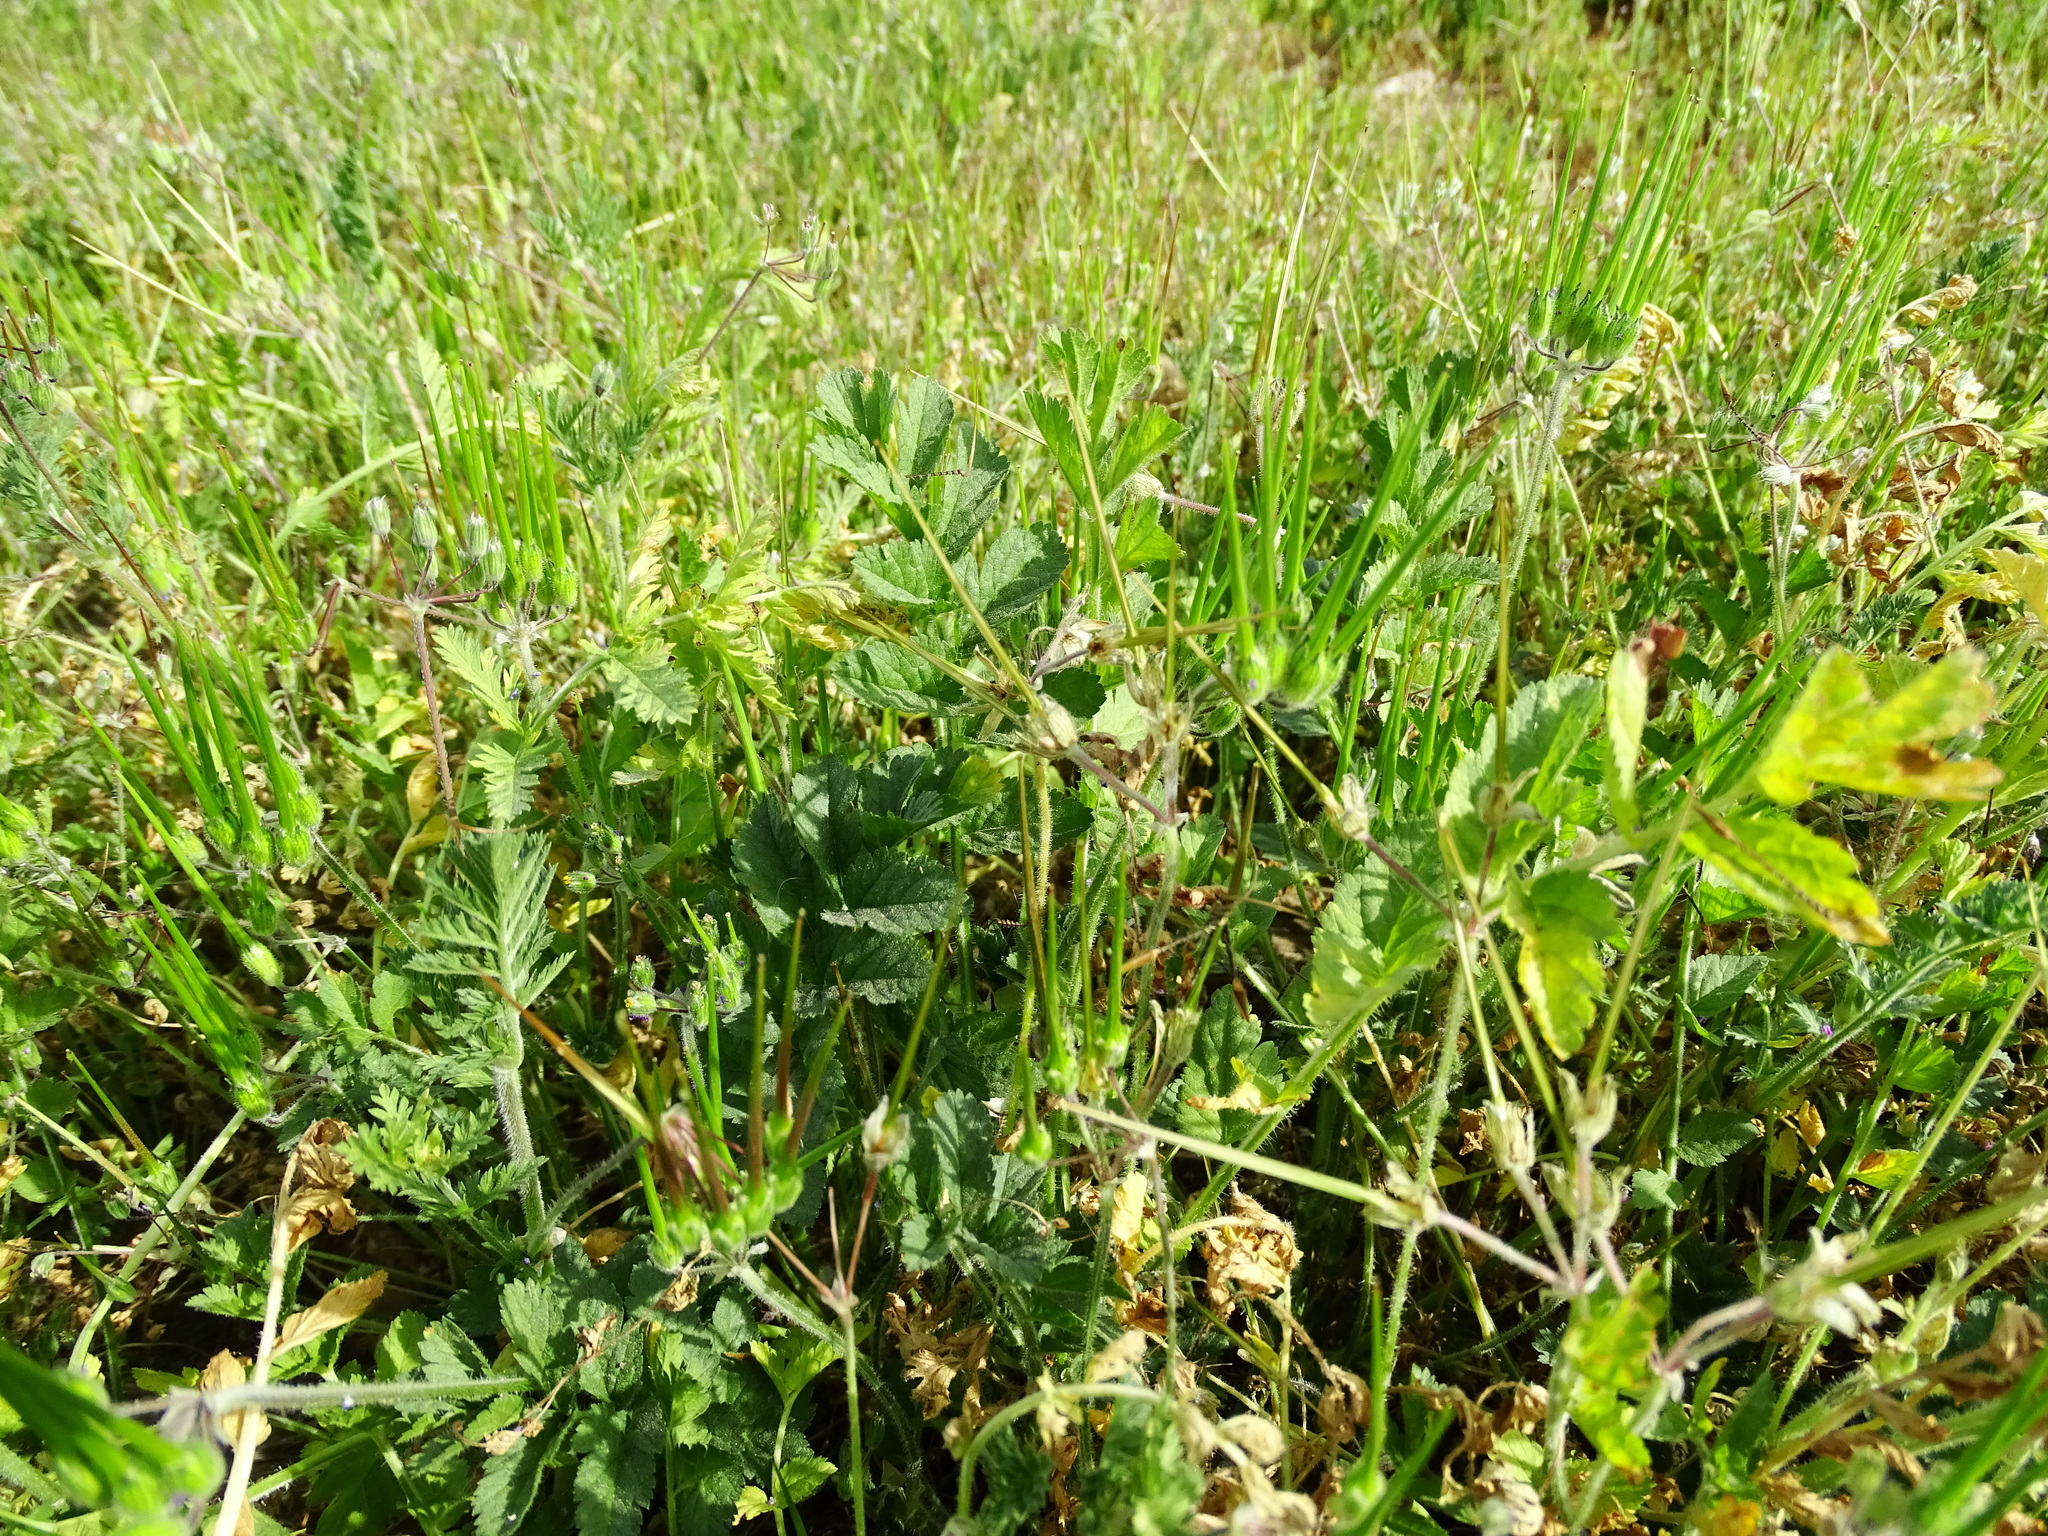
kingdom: Plantae
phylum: Tracheophyta
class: Magnoliopsida
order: Geraniales
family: Geraniaceae
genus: Erodium
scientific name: Erodium moschatum
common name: Musk stork's-bill
